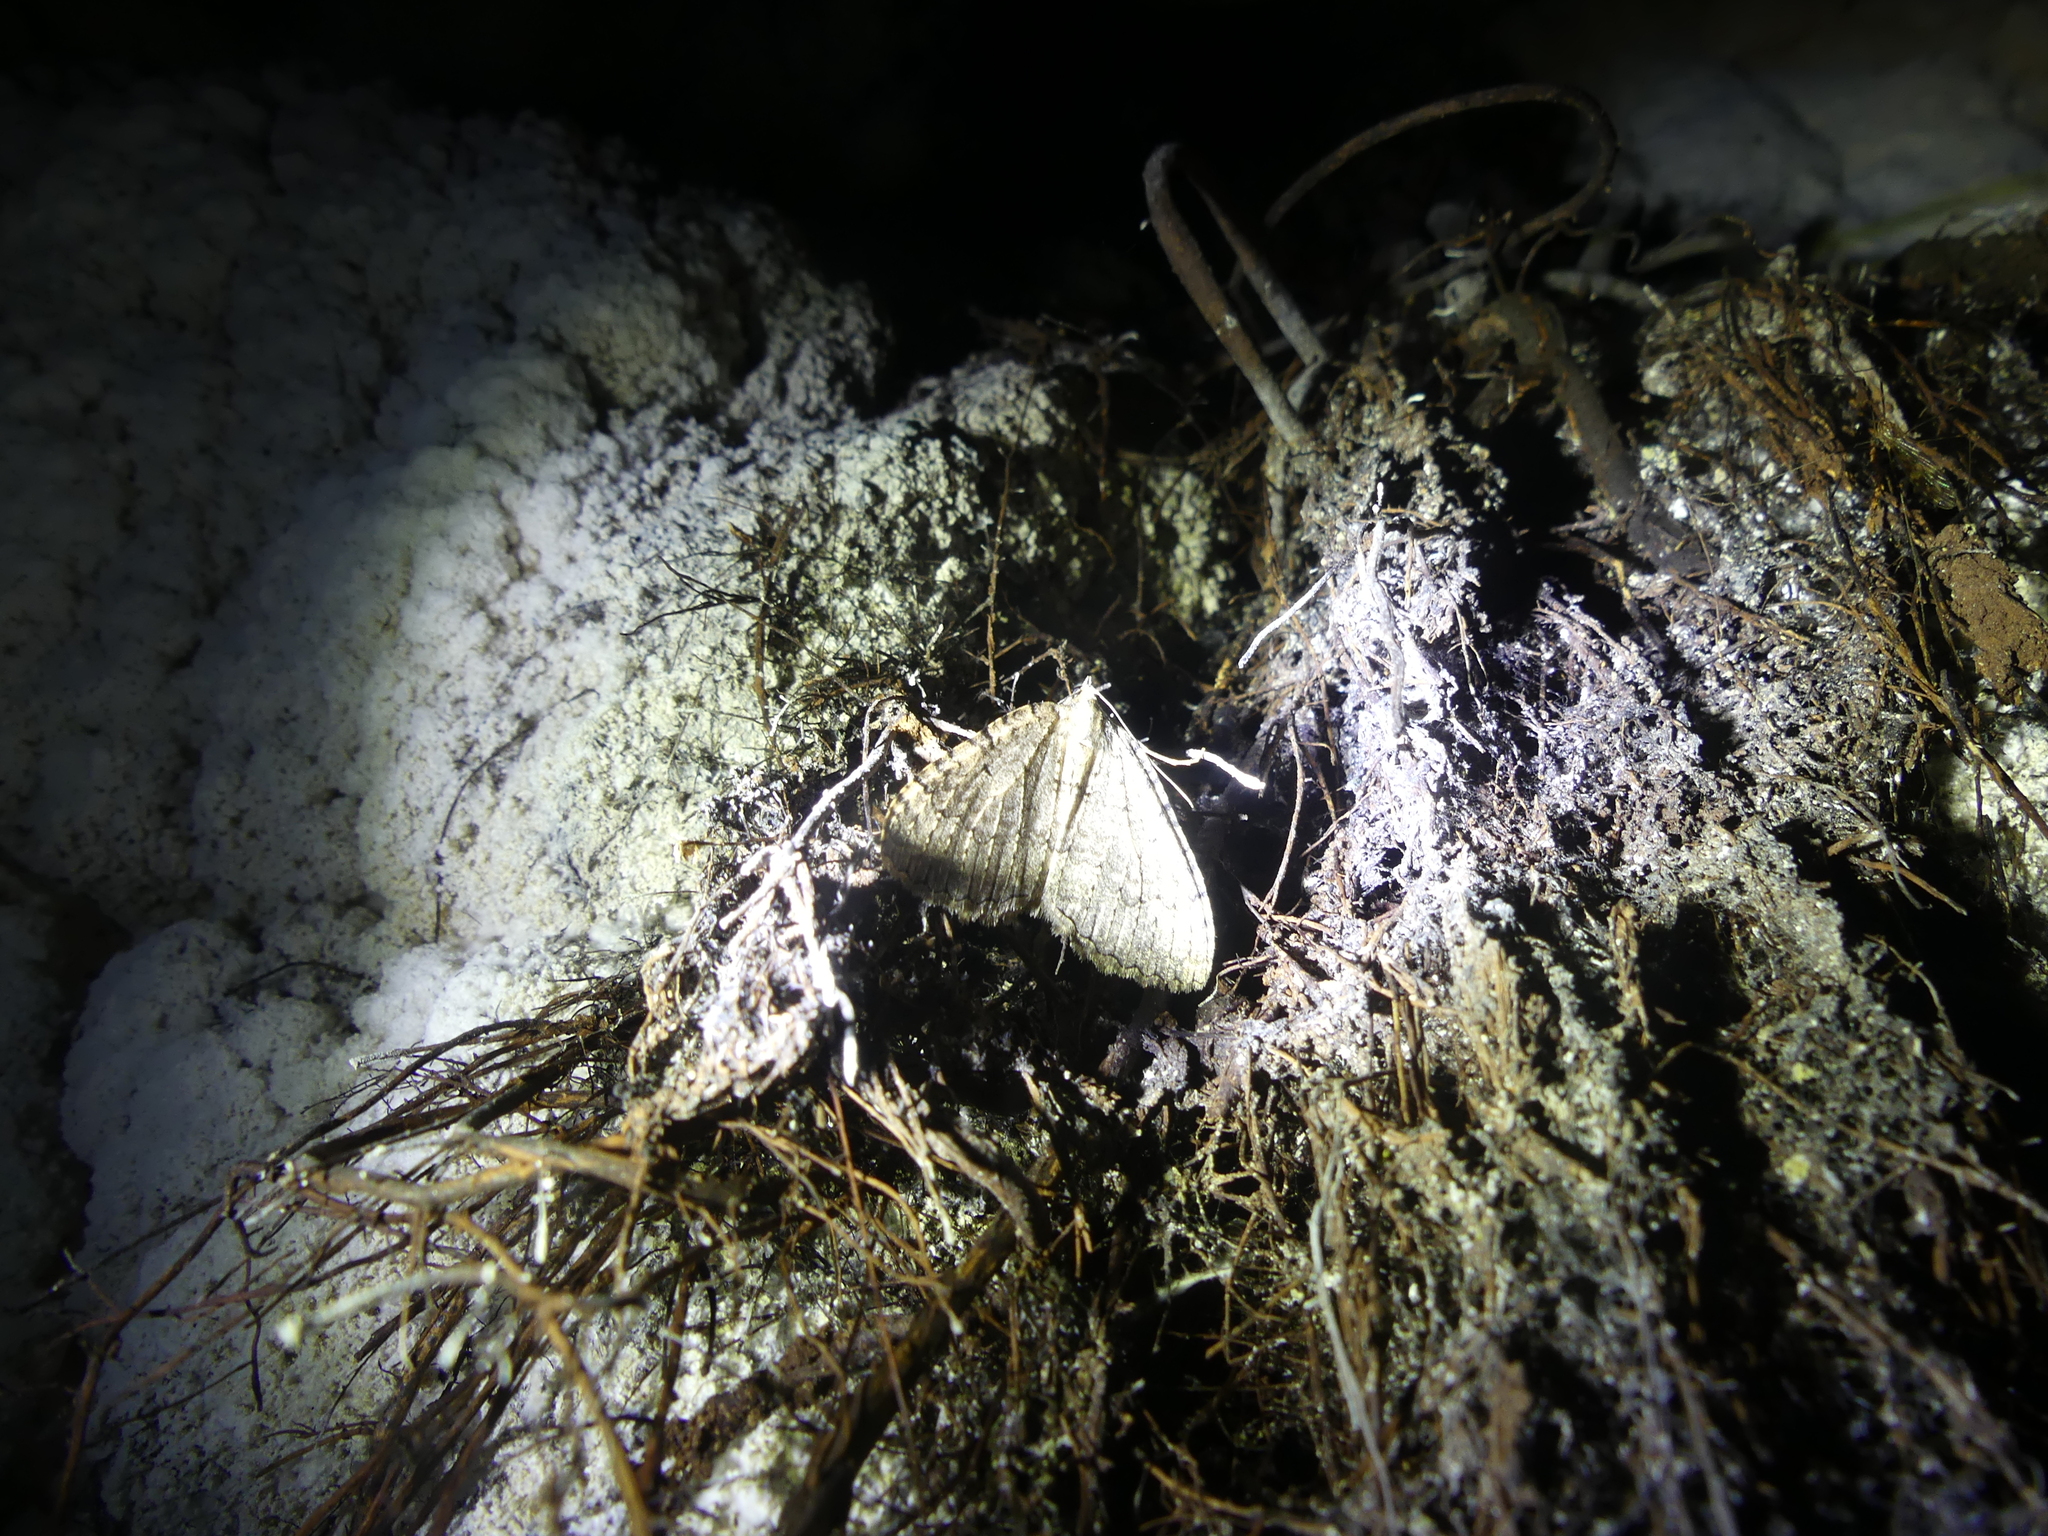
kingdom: Animalia
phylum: Arthropoda
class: Insecta
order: Lepidoptera
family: Geometridae
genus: Triphosa
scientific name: Triphosa sabaudiata
